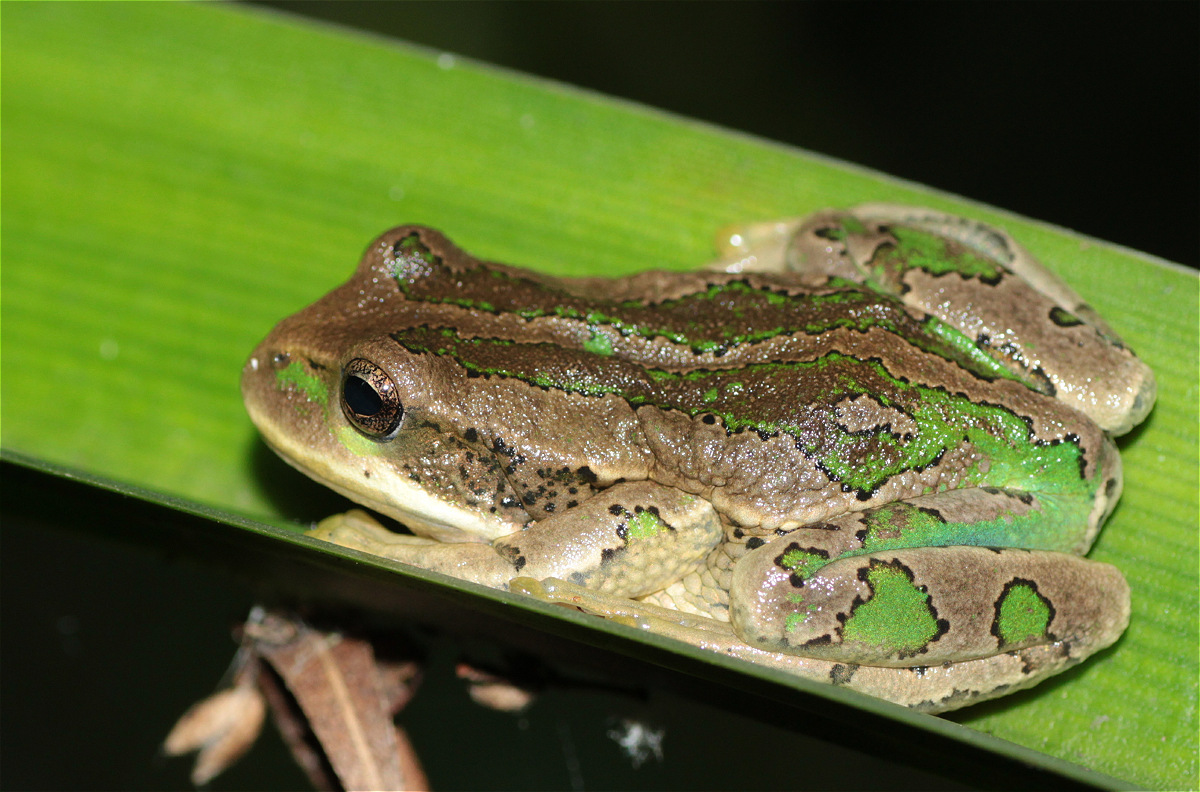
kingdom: Animalia
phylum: Chordata
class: Amphibia
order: Anura
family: Hemiphractidae
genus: Gastrotheca
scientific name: Gastrotheca cuencana
